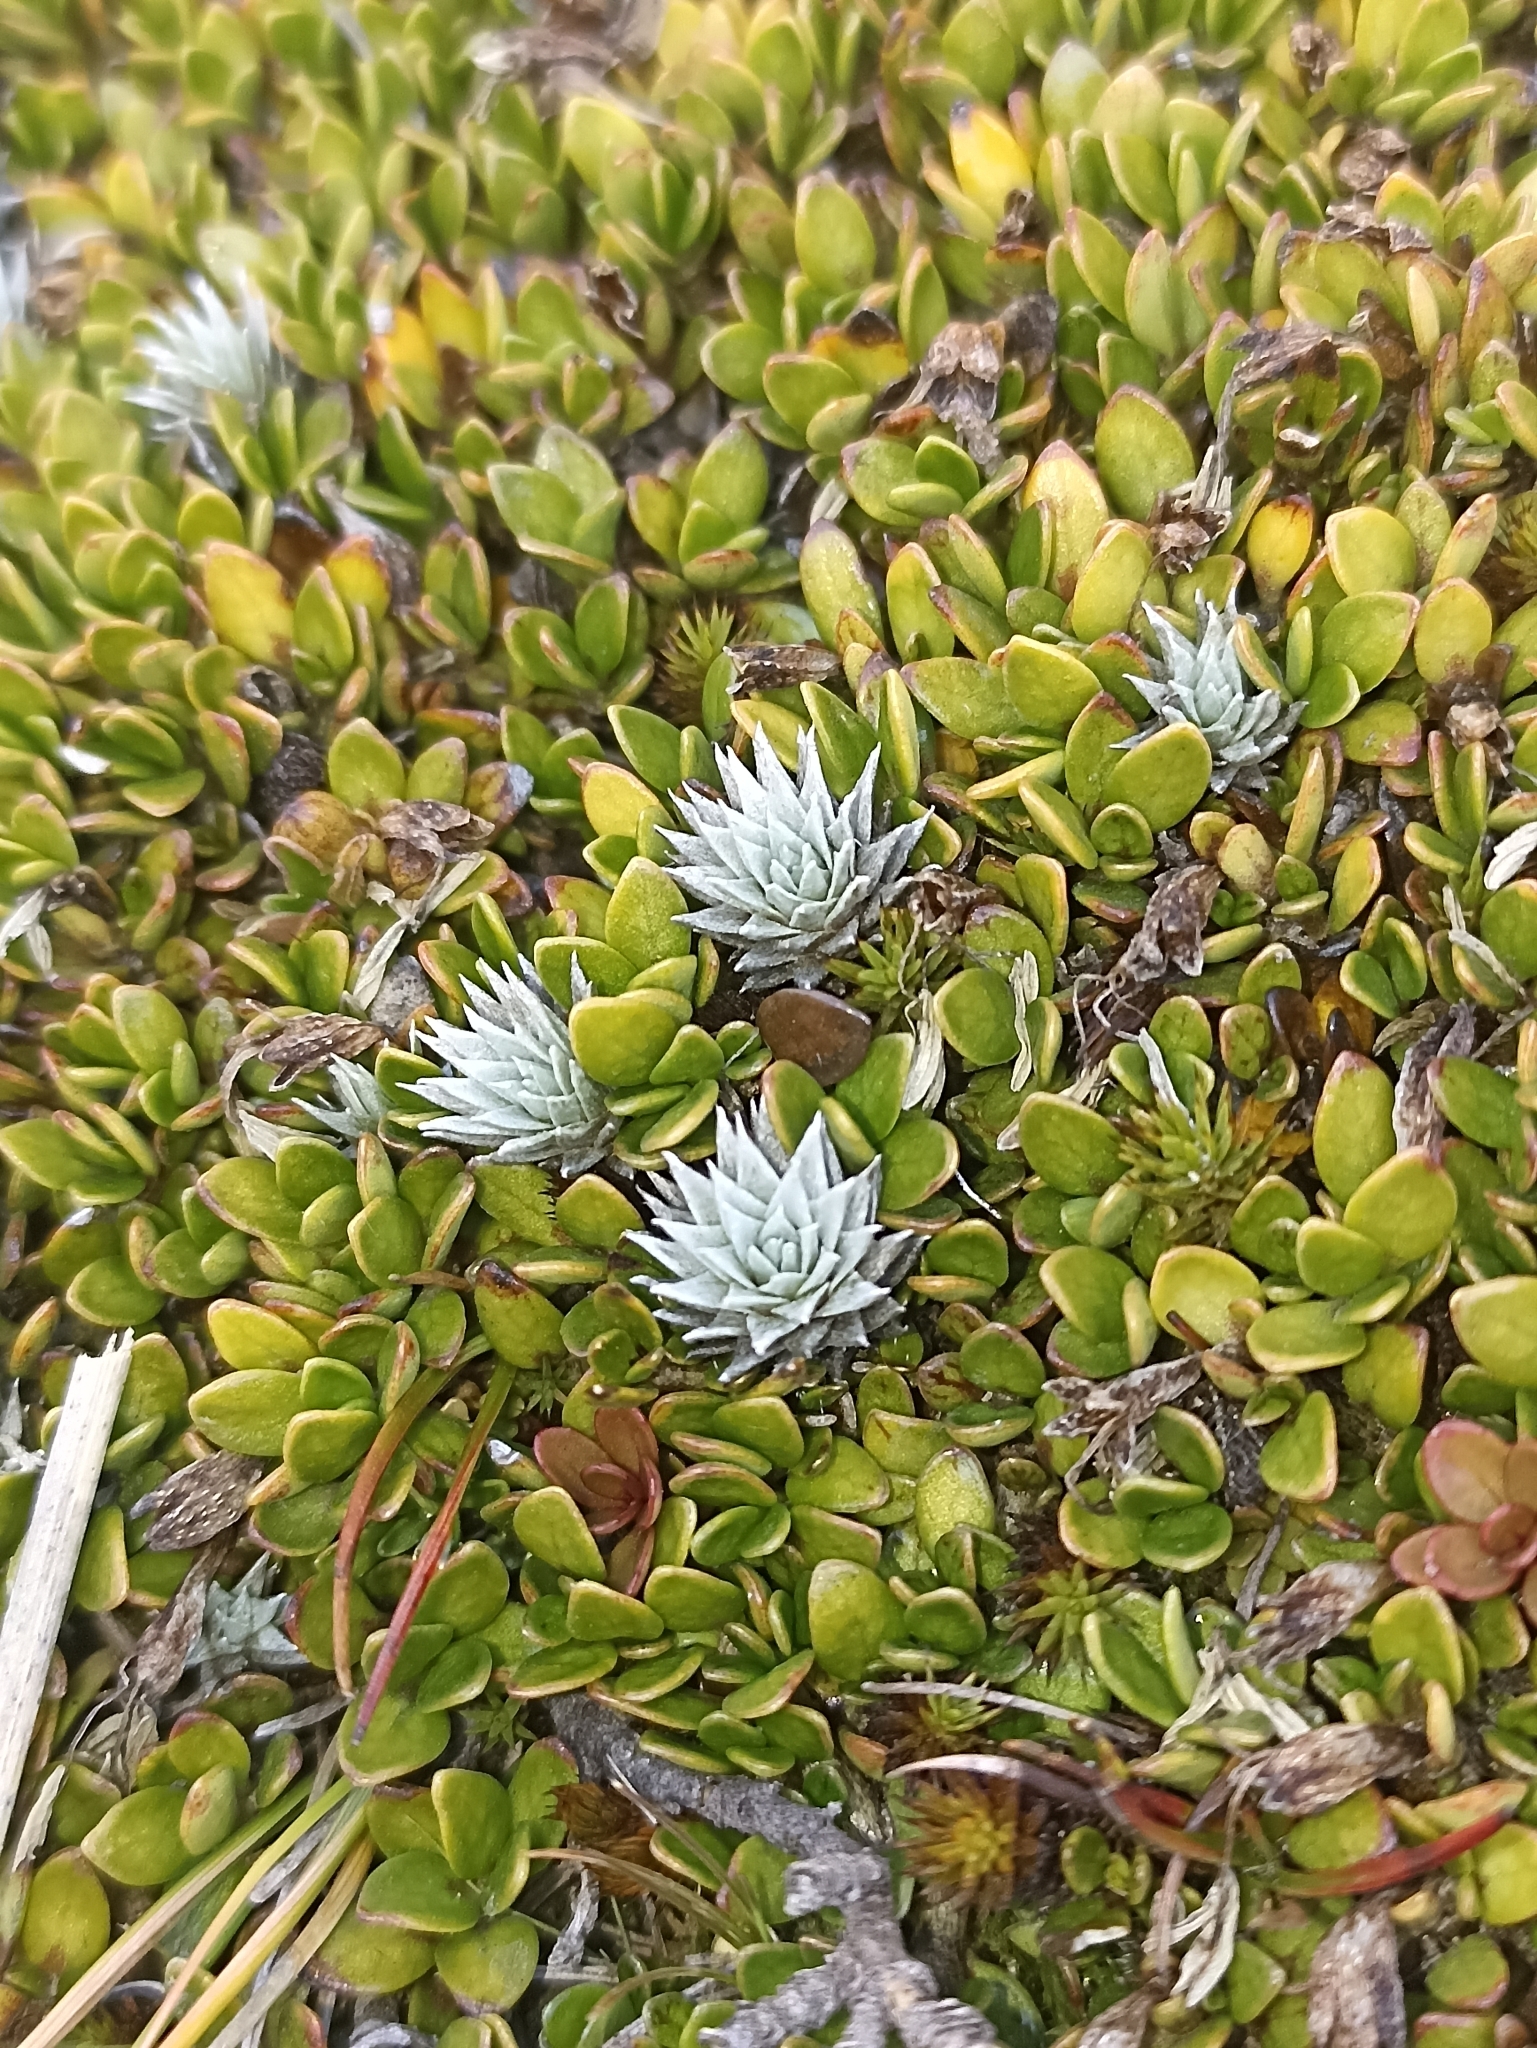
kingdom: Plantae
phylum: Tracheophyta
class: Magnoliopsida
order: Asterales
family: Asteraceae
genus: Raoulia
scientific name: Raoulia grandiflora
